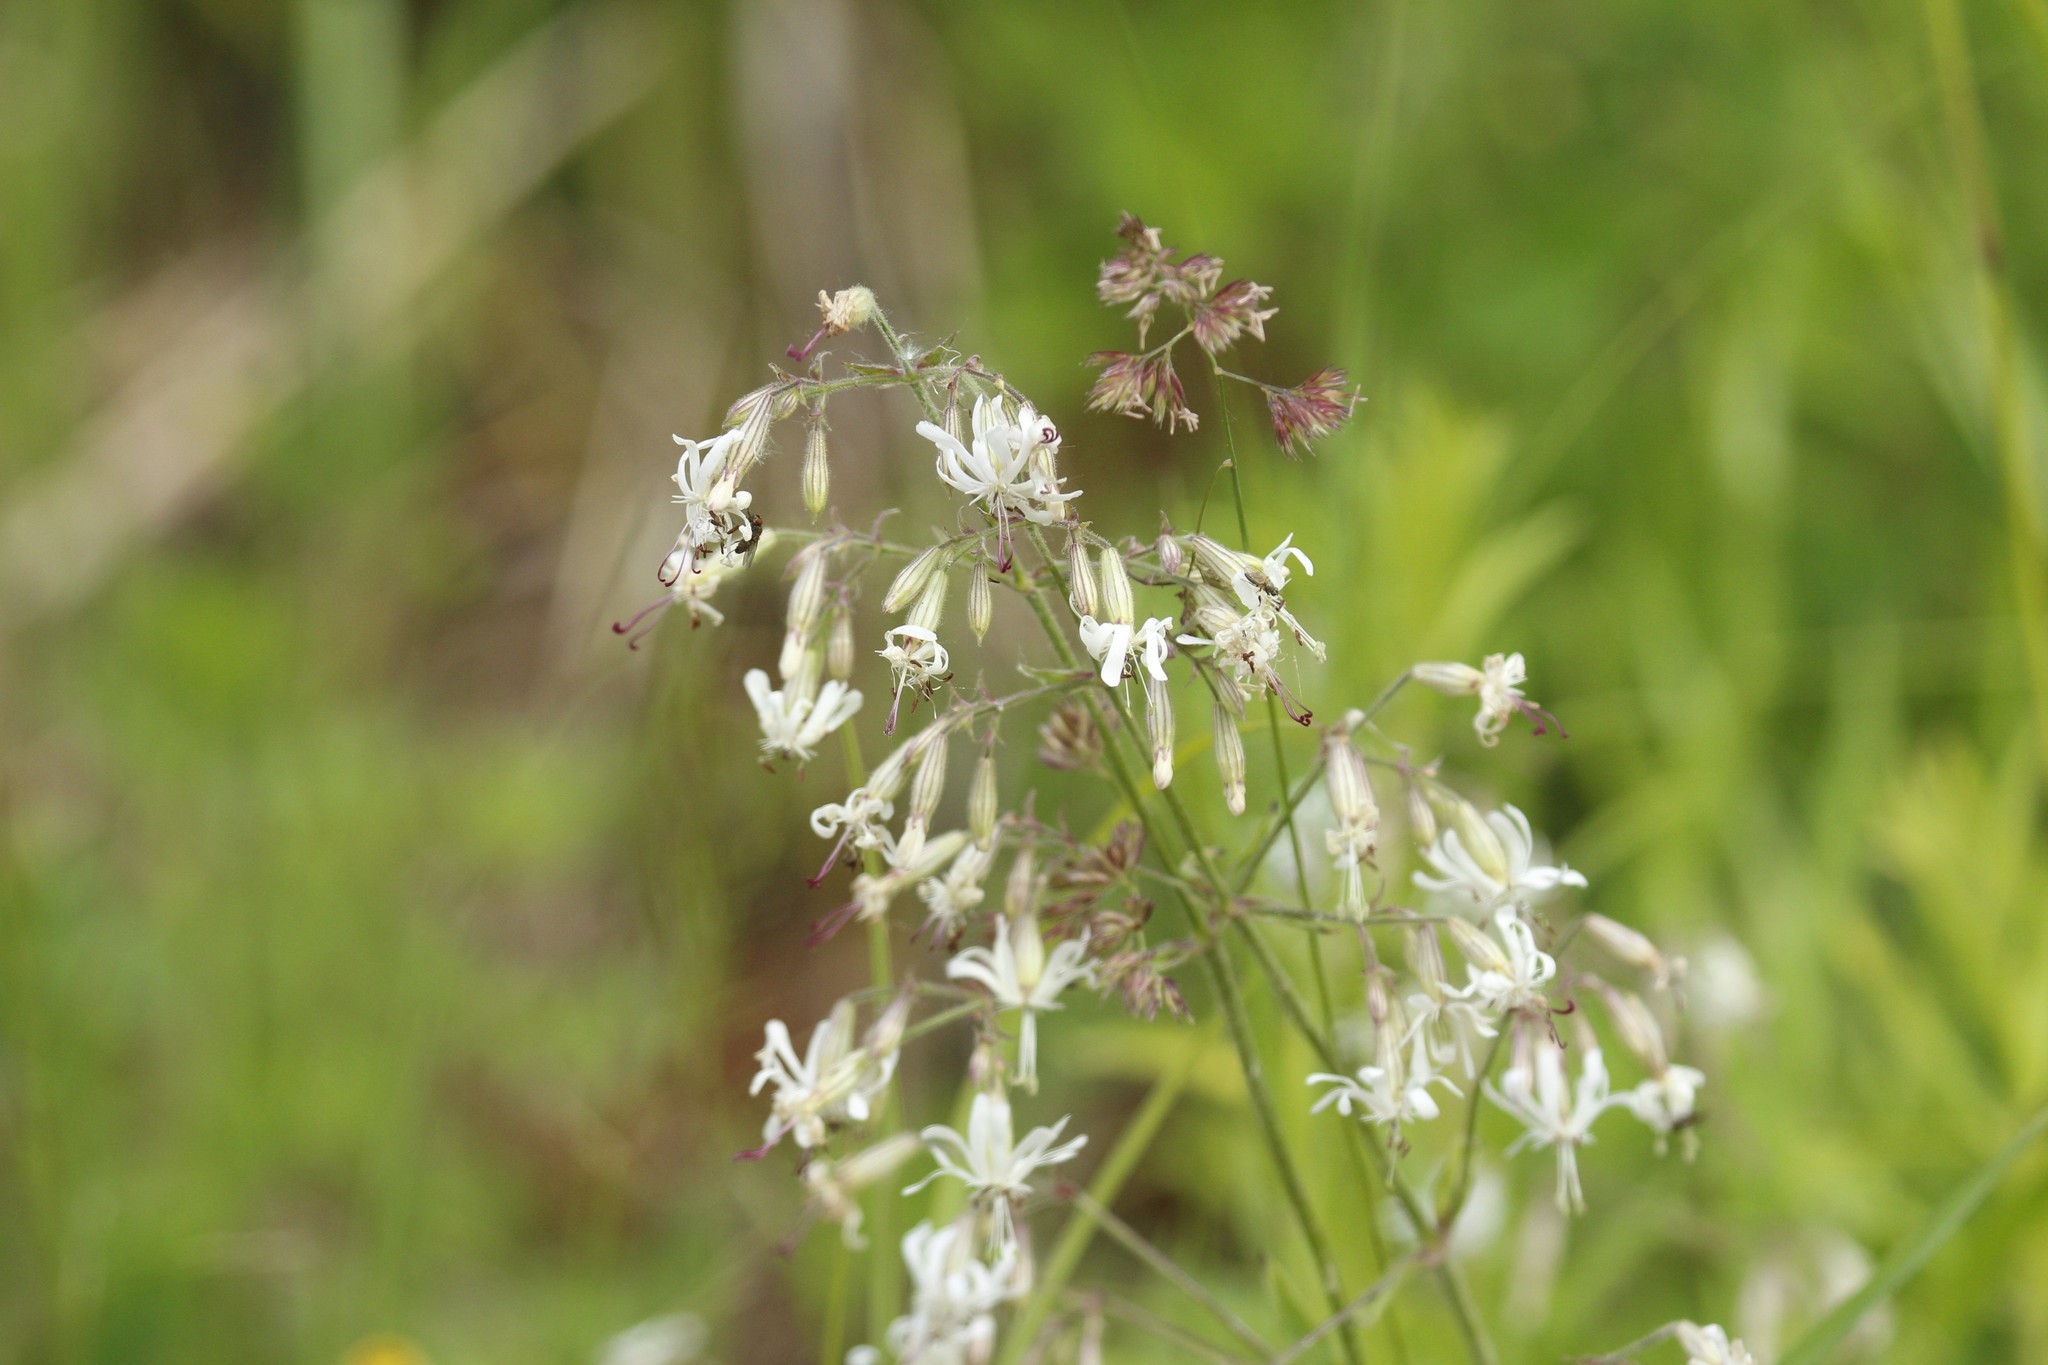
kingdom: Plantae
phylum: Tracheophyta
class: Magnoliopsida
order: Caryophyllales
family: Caryophyllaceae
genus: Silene
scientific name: Silene nutans
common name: Nottingham catchfly
